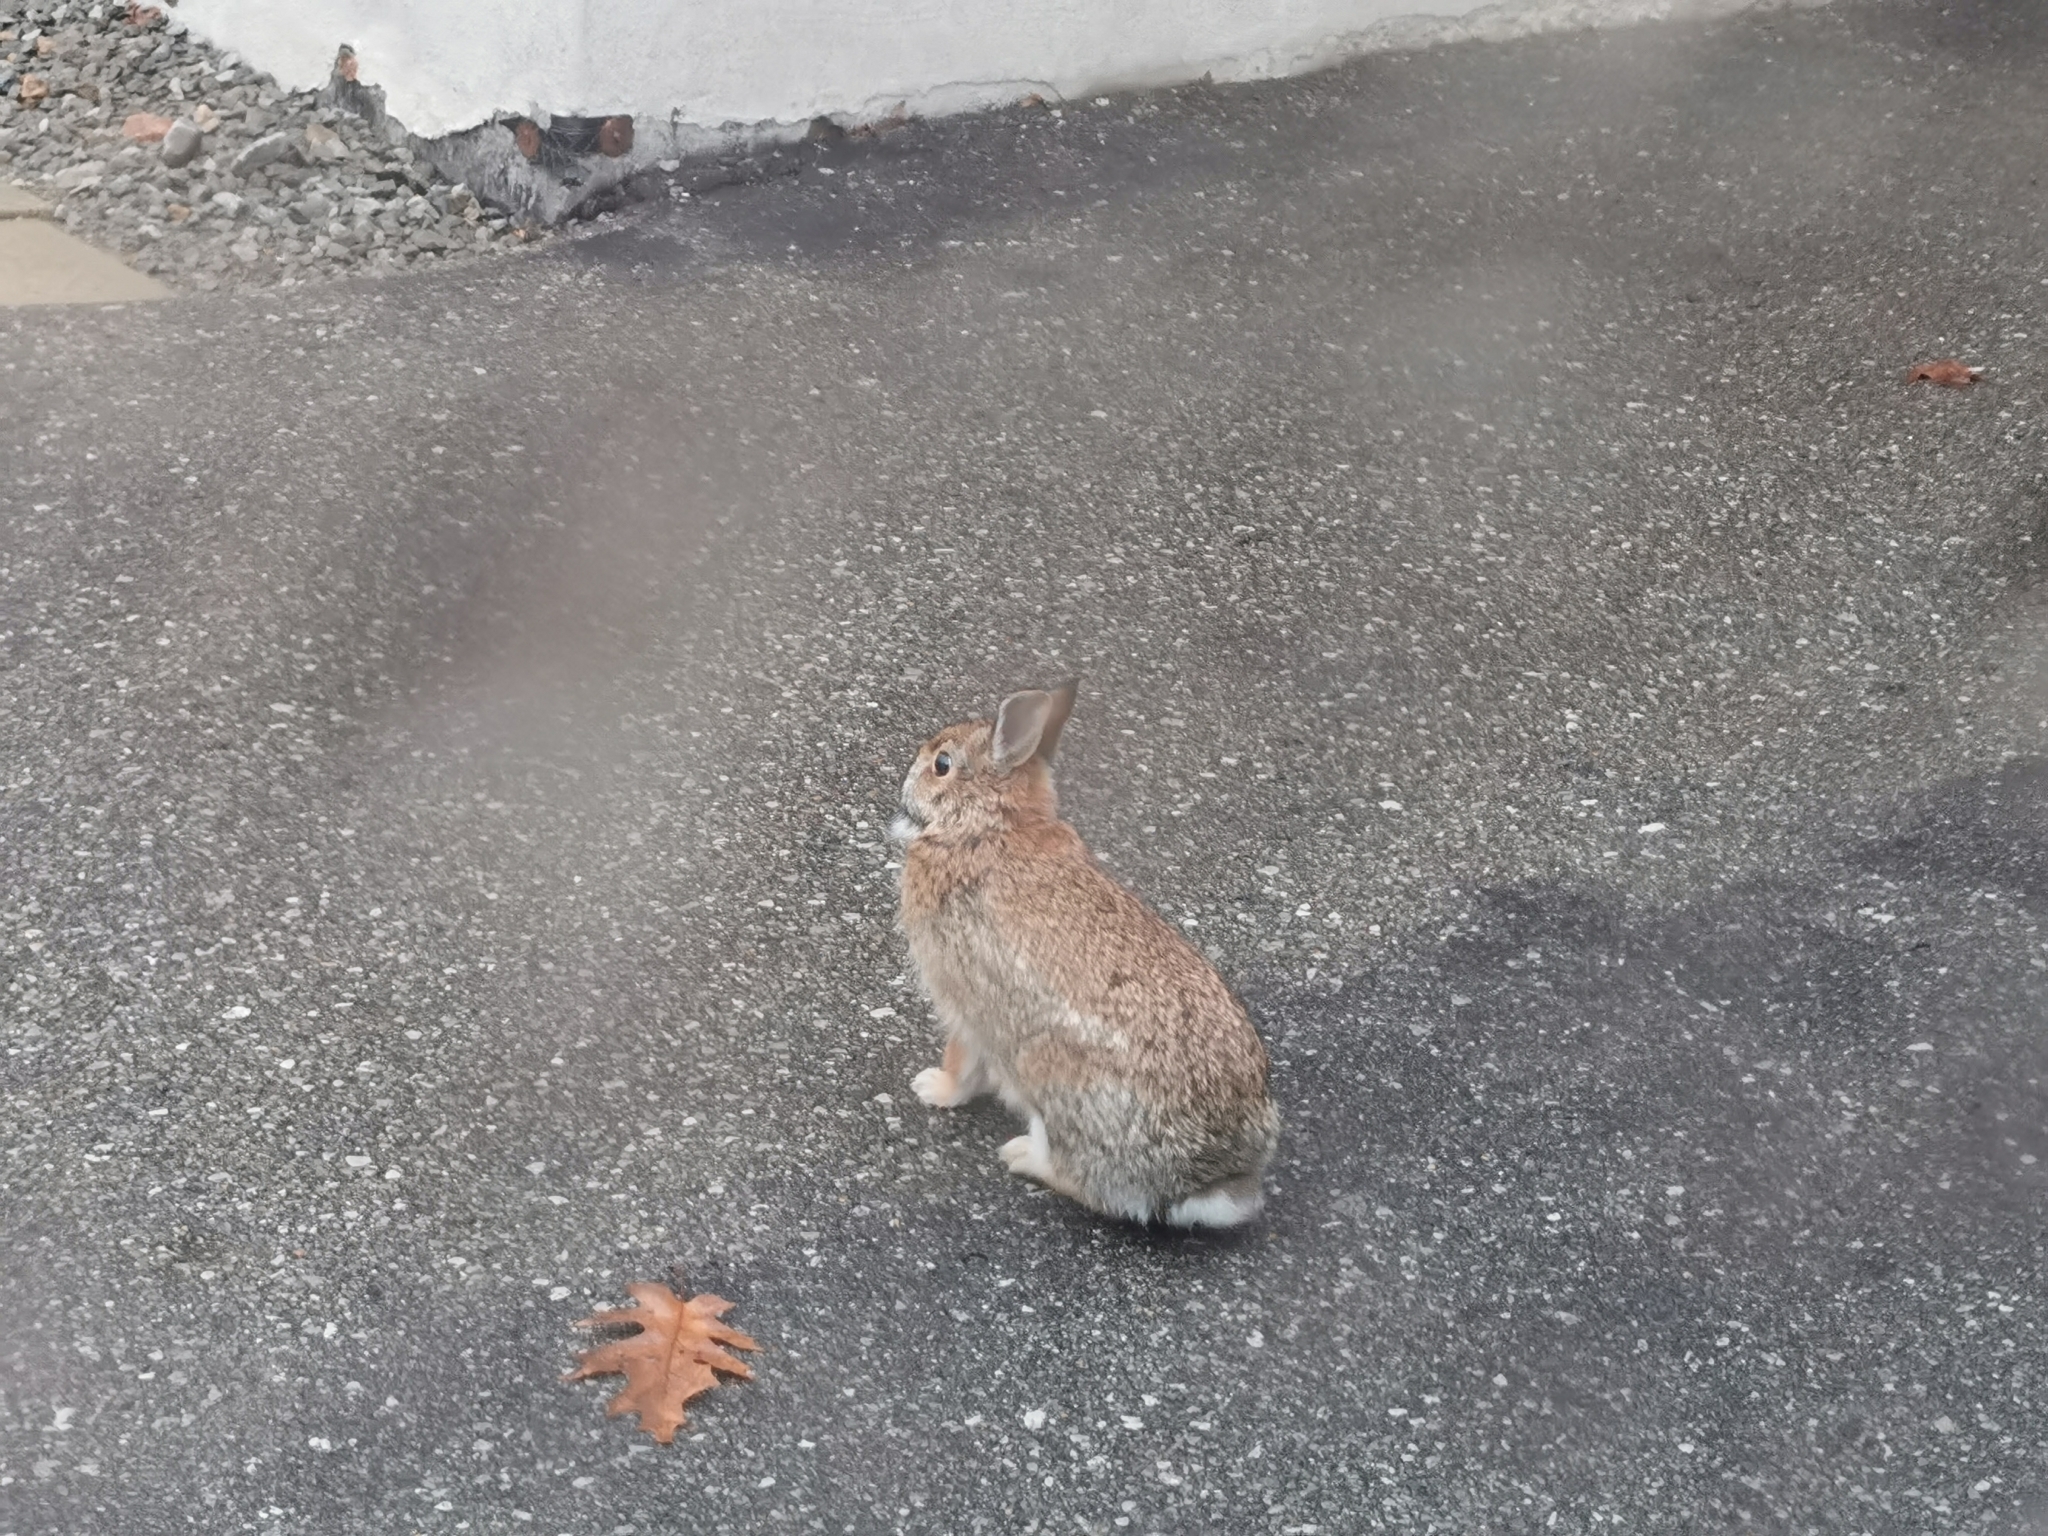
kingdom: Animalia
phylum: Chordata
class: Mammalia
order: Lagomorpha
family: Leporidae
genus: Sylvilagus
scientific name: Sylvilagus floridanus
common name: Eastern cottontail
